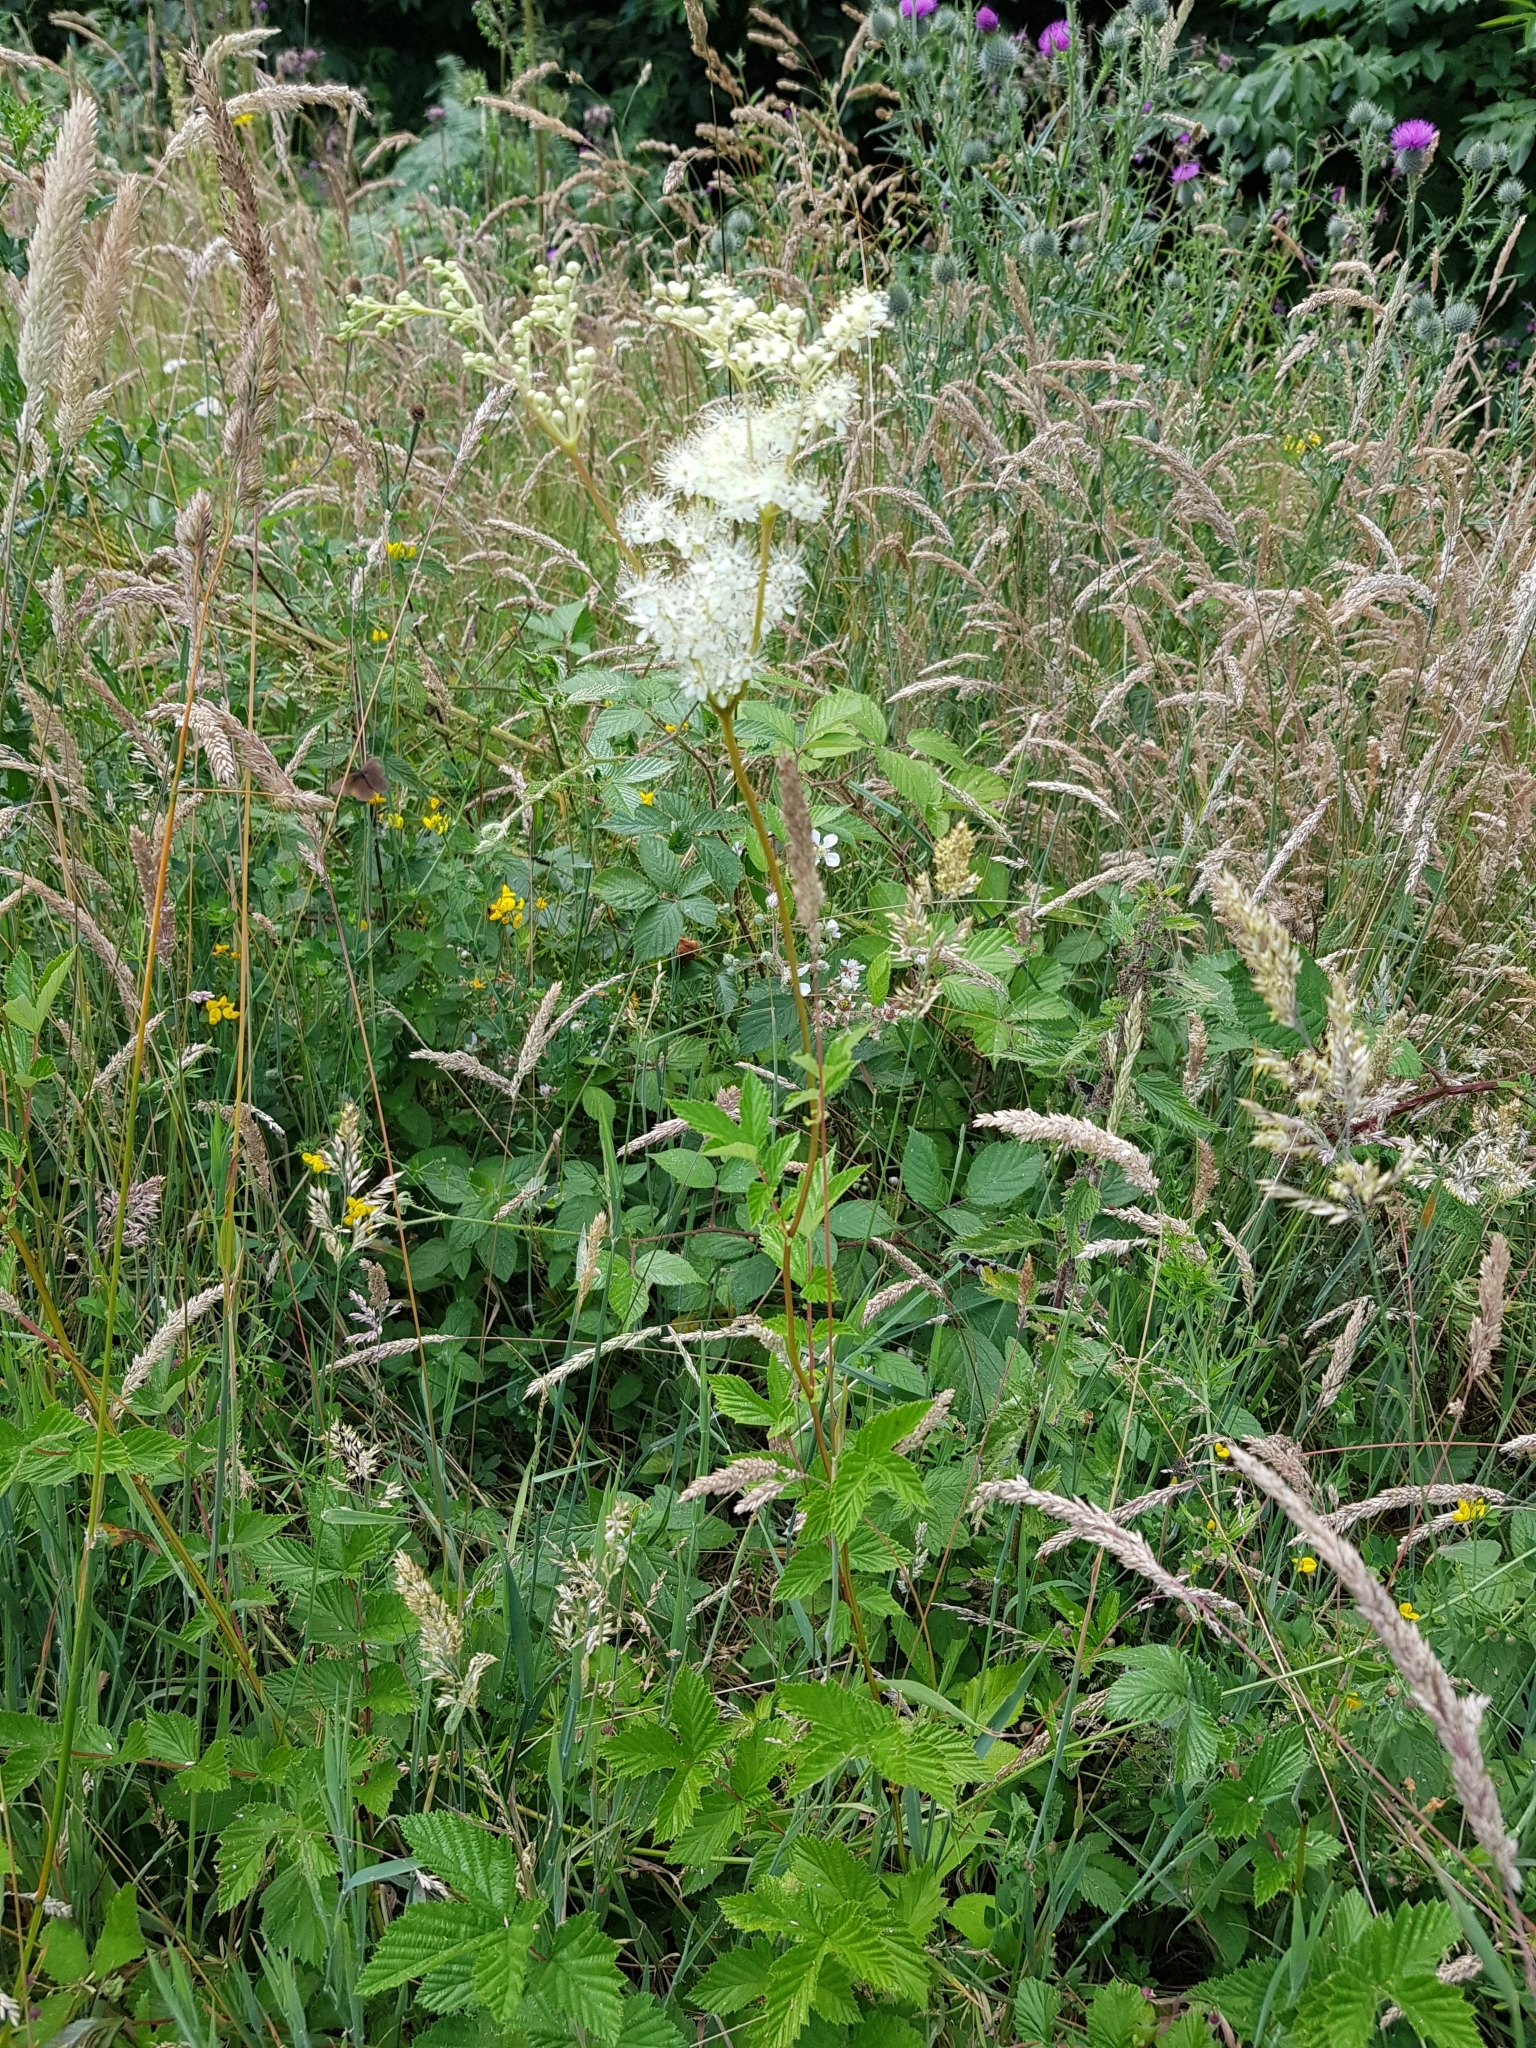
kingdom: Plantae
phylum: Tracheophyta
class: Magnoliopsida
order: Rosales
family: Rosaceae
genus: Filipendula
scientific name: Filipendula ulmaria
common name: Meadowsweet
